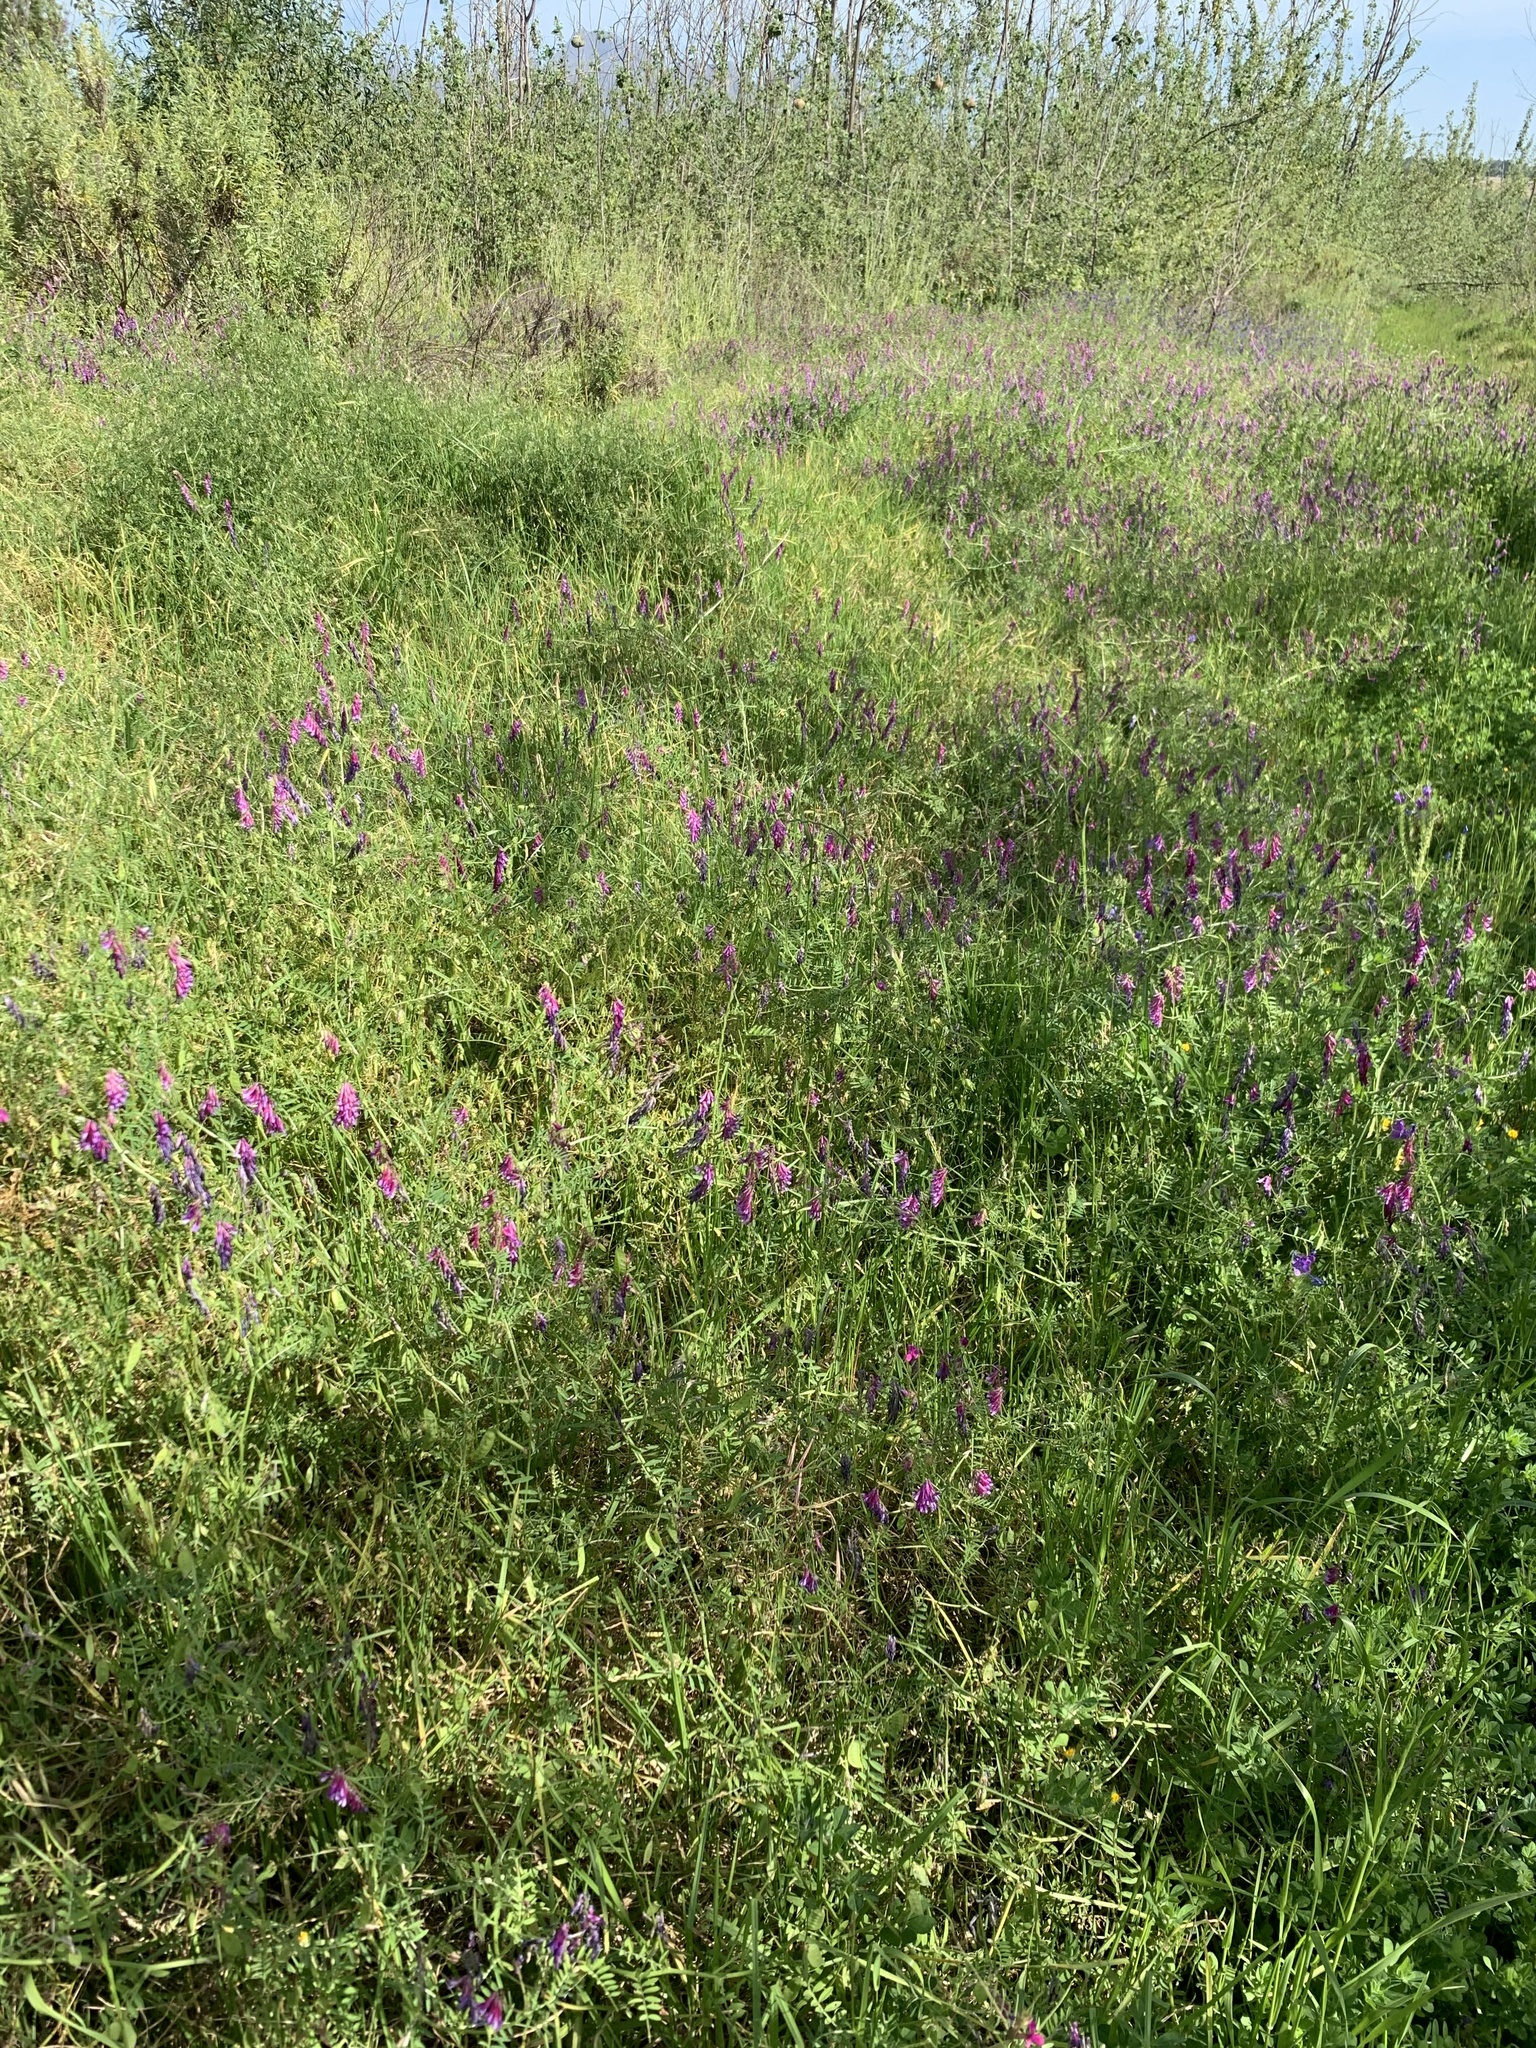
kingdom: Plantae
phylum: Tracheophyta
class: Magnoliopsida
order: Fabales
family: Fabaceae
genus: Vicia
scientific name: Vicia eriocarpa
